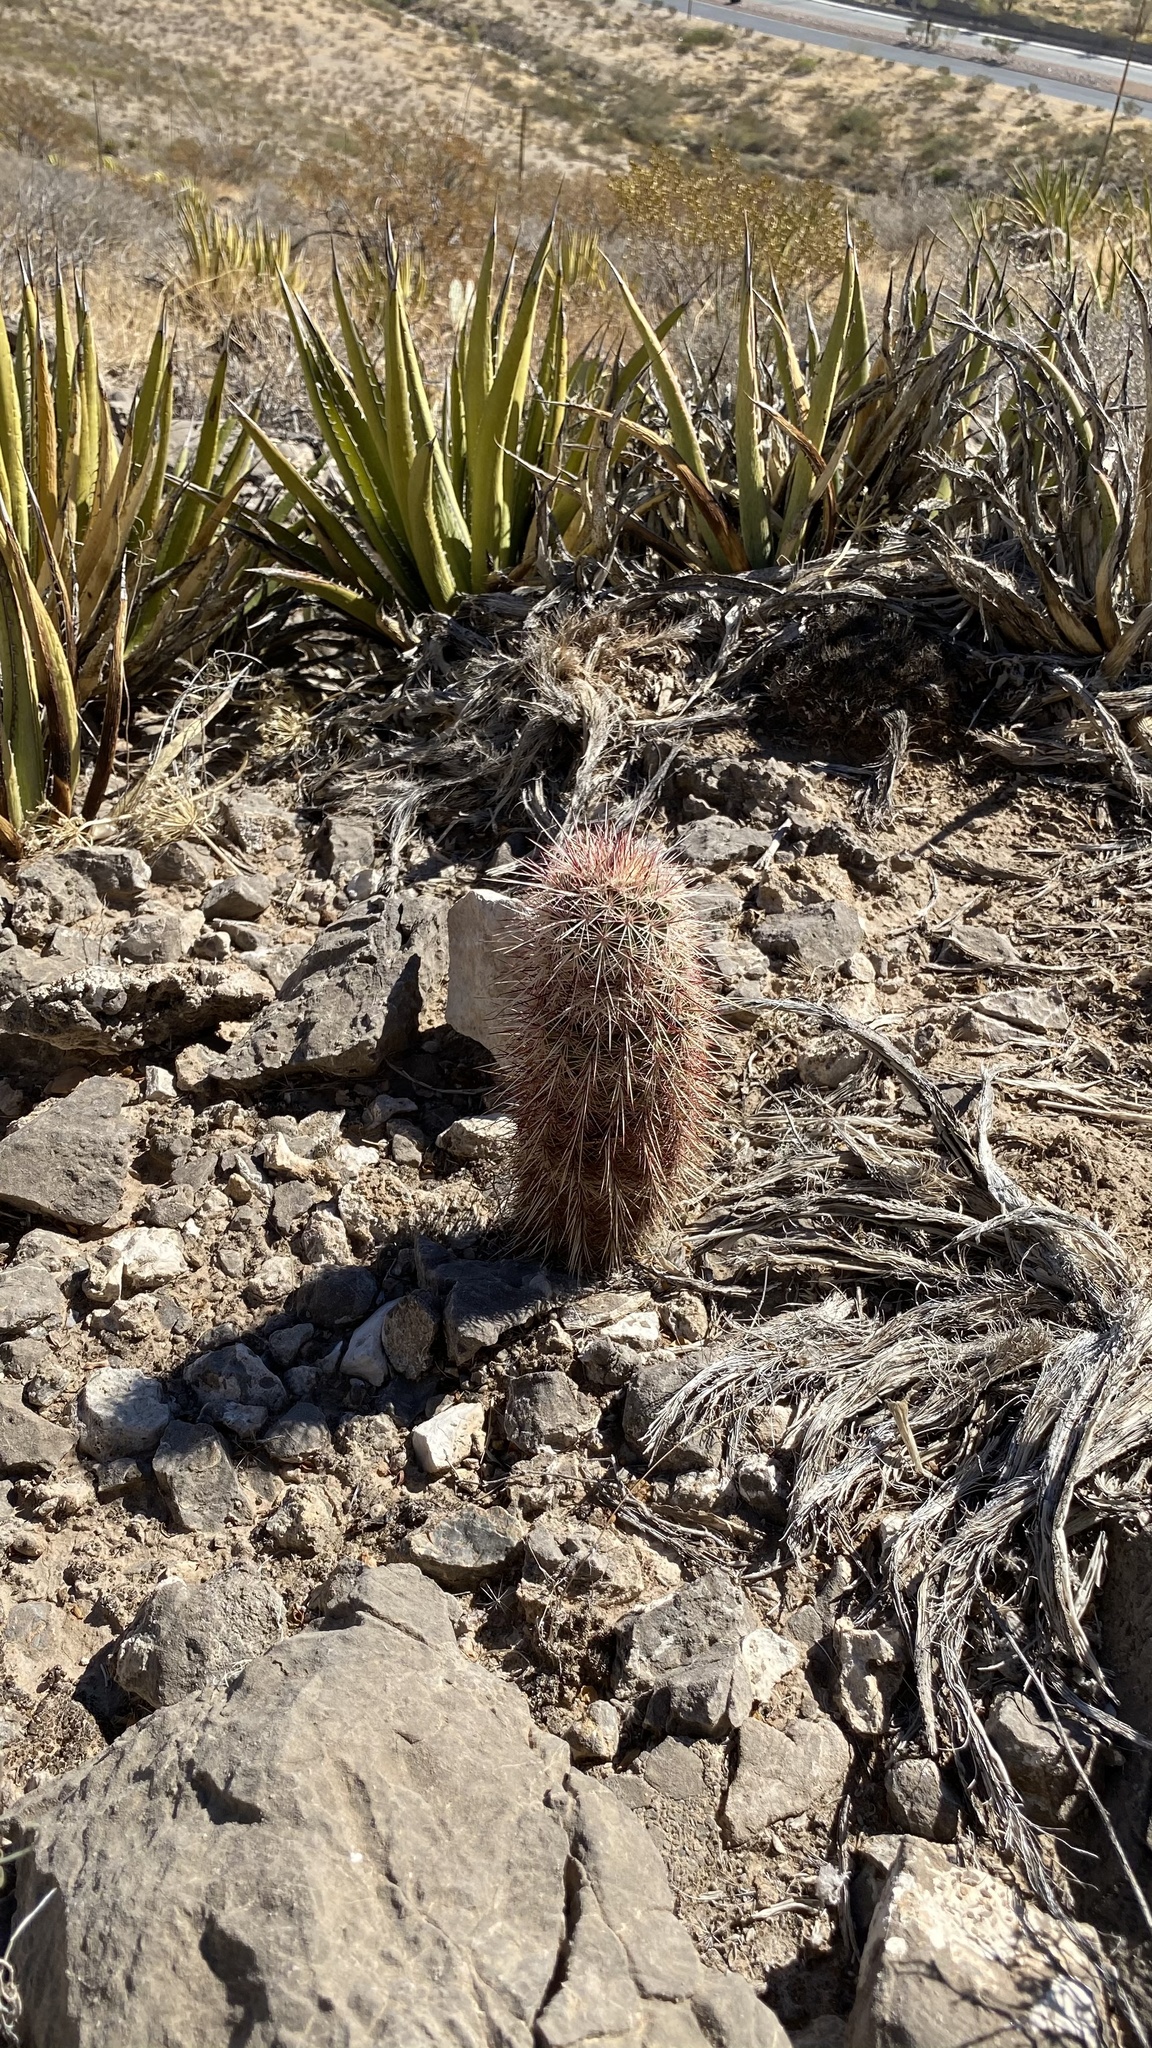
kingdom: Plantae
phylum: Tracheophyta
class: Magnoliopsida
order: Caryophyllales
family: Cactaceae
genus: Echinocereus
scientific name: Echinocereus viridiflorus
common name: Nylon hedgehog cactus
